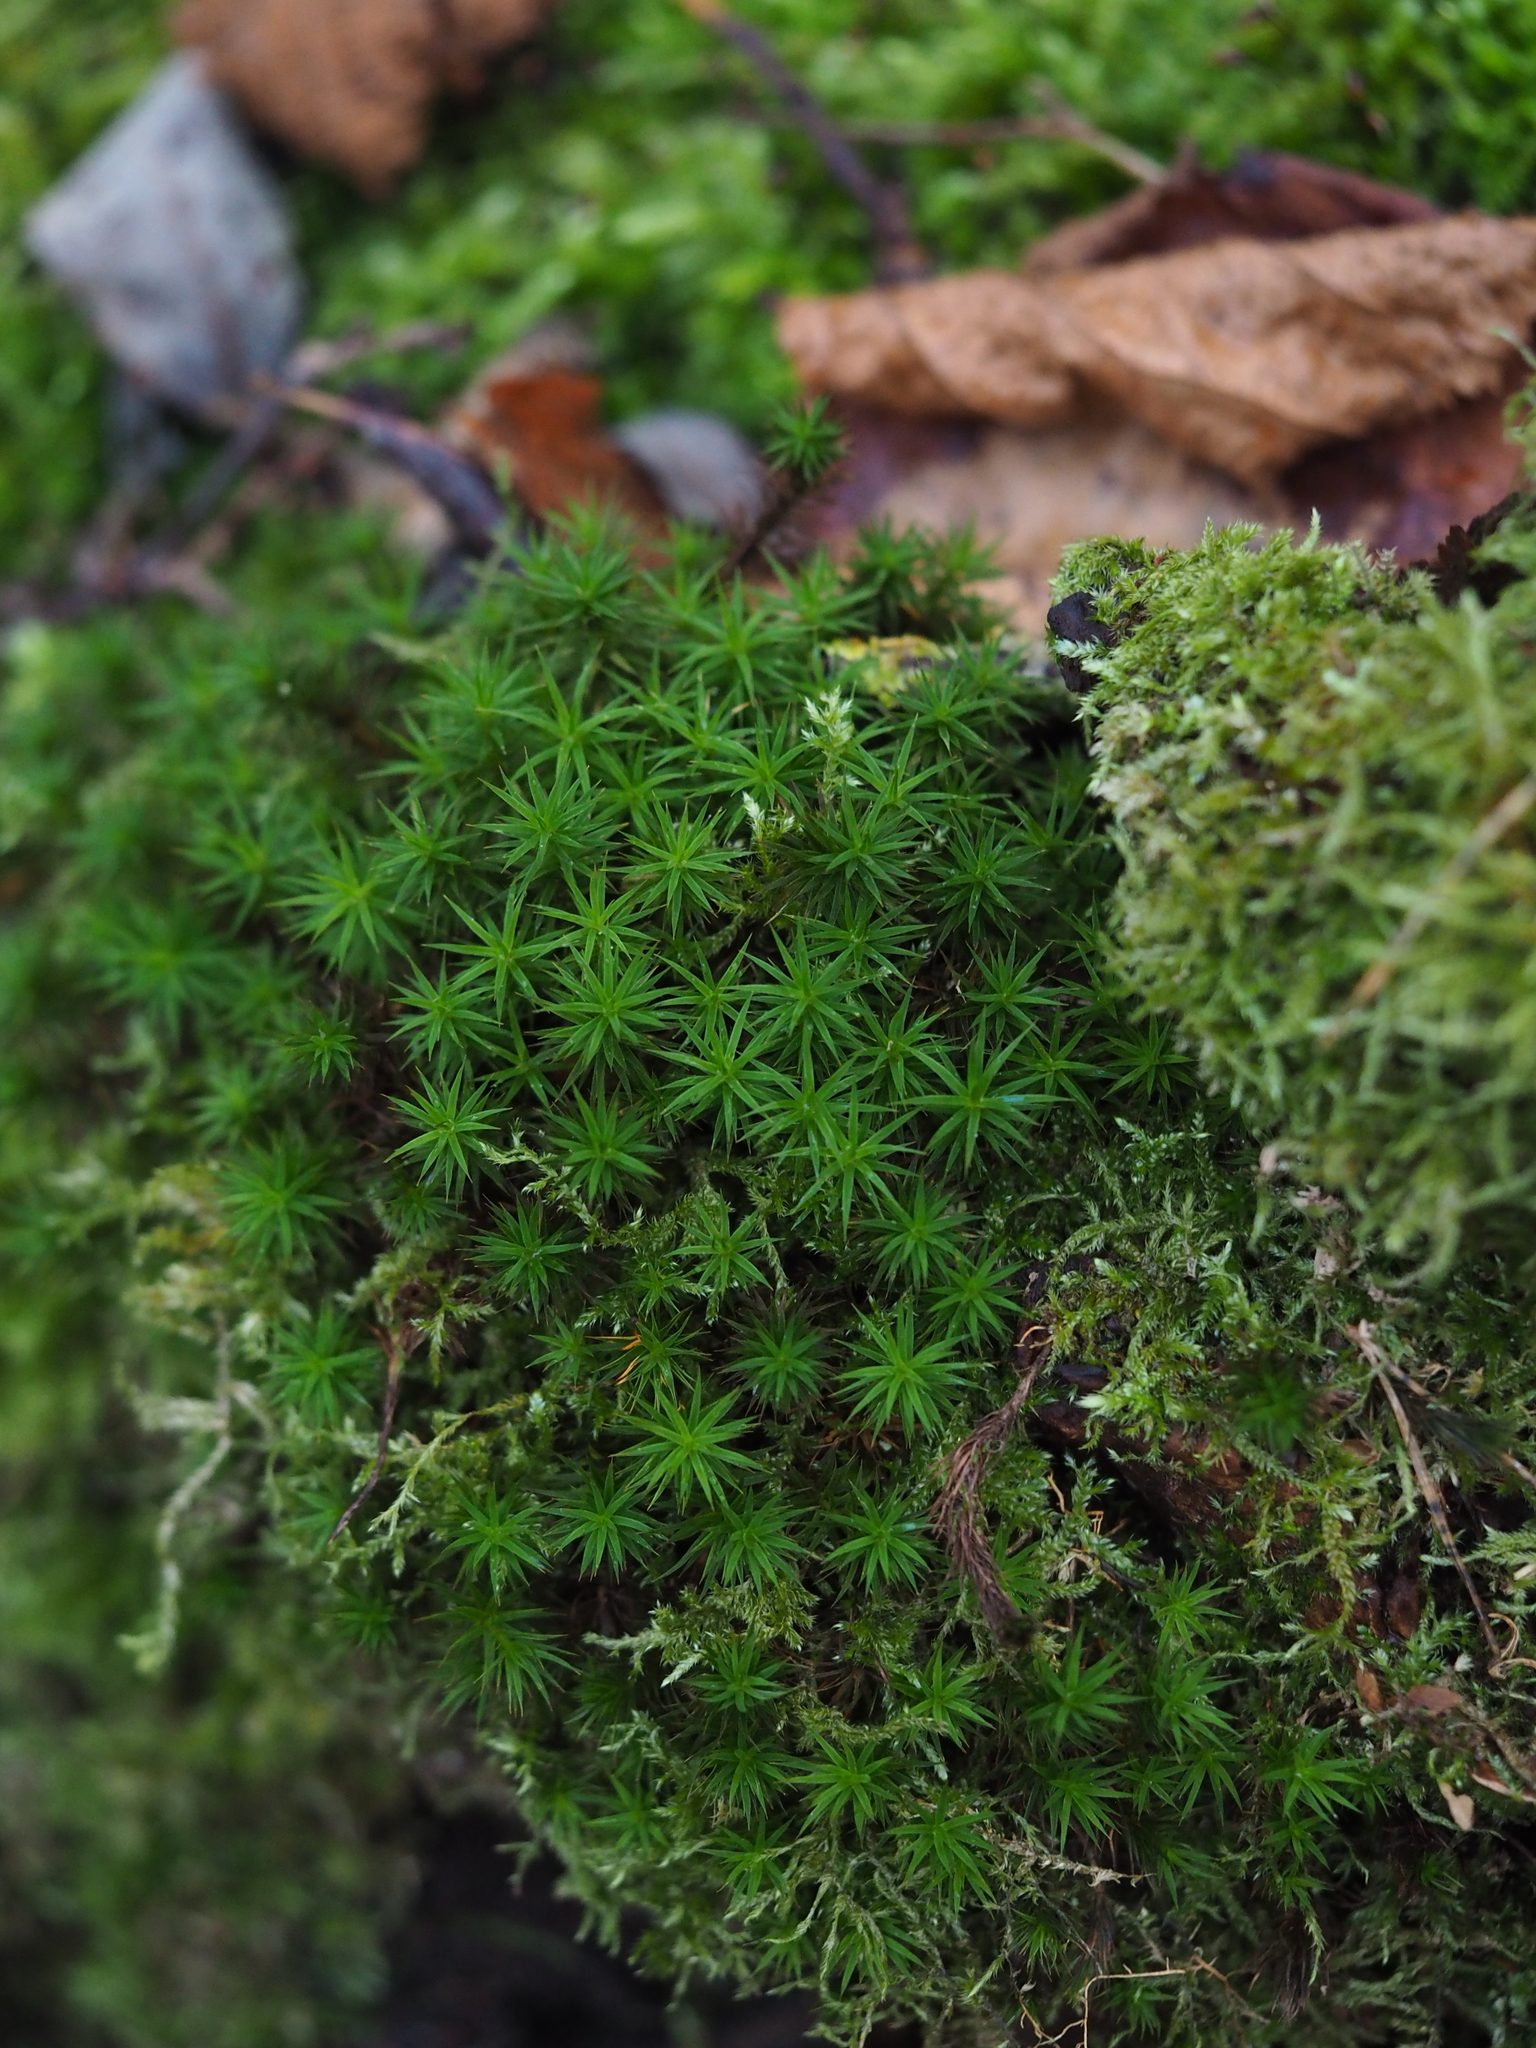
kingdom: Plantae
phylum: Bryophyta
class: Polytrichopsida
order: Polytrichales
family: Polytrichaceae
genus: Polytrichum
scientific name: Polytrichum formosum
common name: Bank haircap moss
